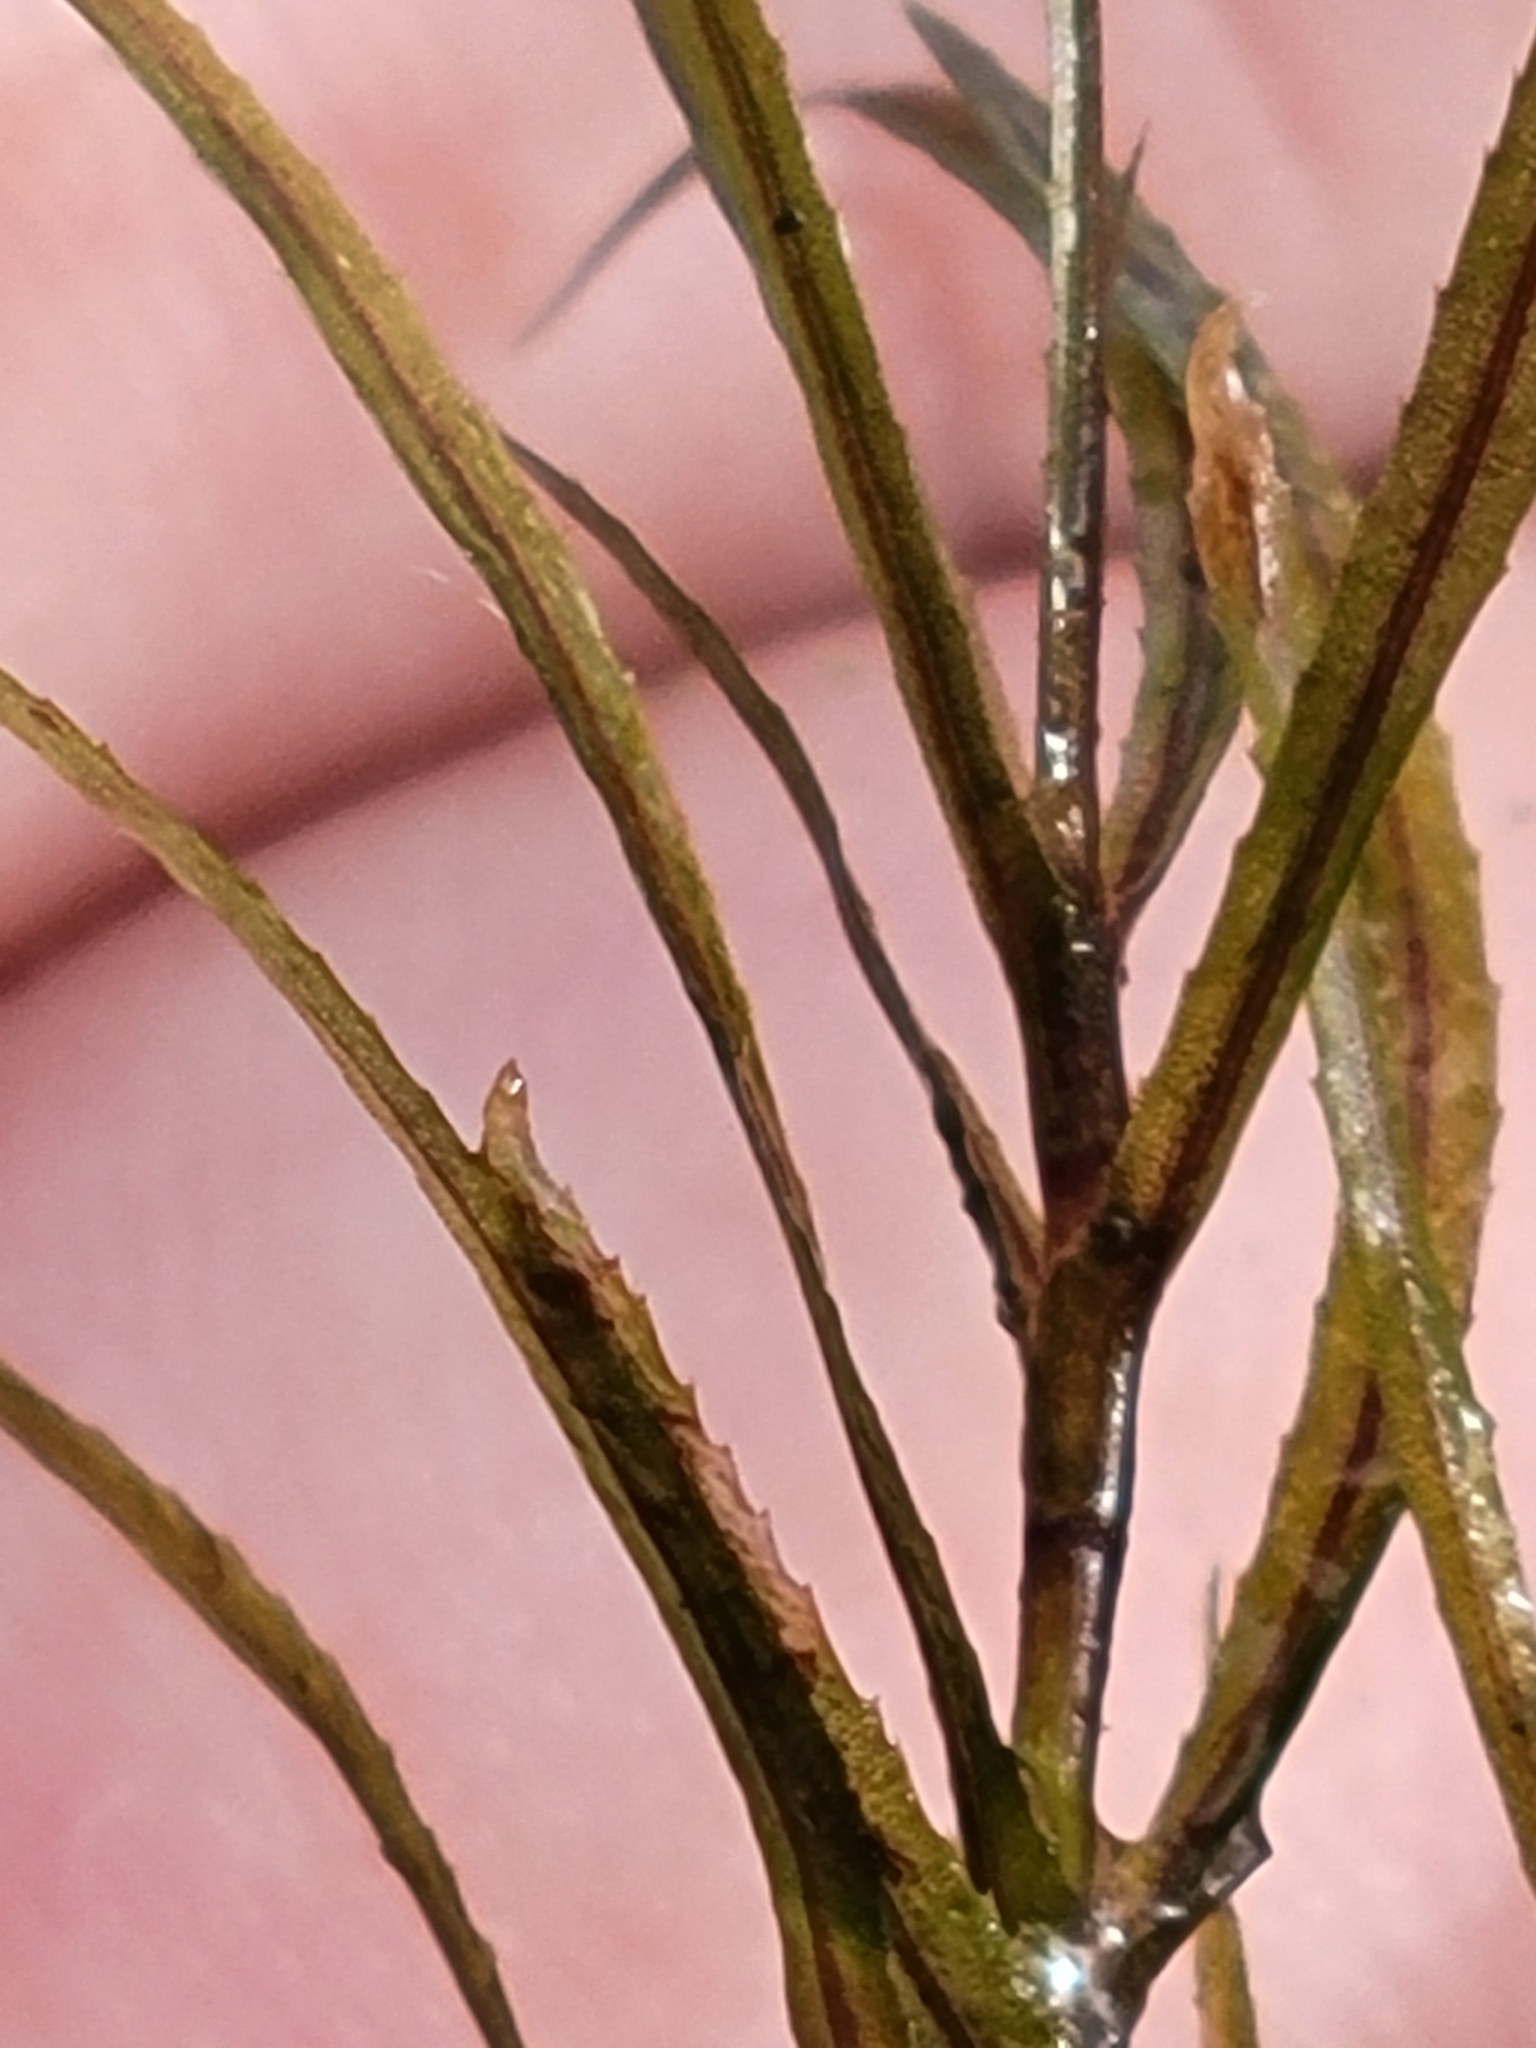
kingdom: Plantae
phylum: Tracheophyta
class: Liliopsida
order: Alismatales
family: Hydrocharitaceae
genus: Najas
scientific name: Najas guadalupensis
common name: Southern naiad
